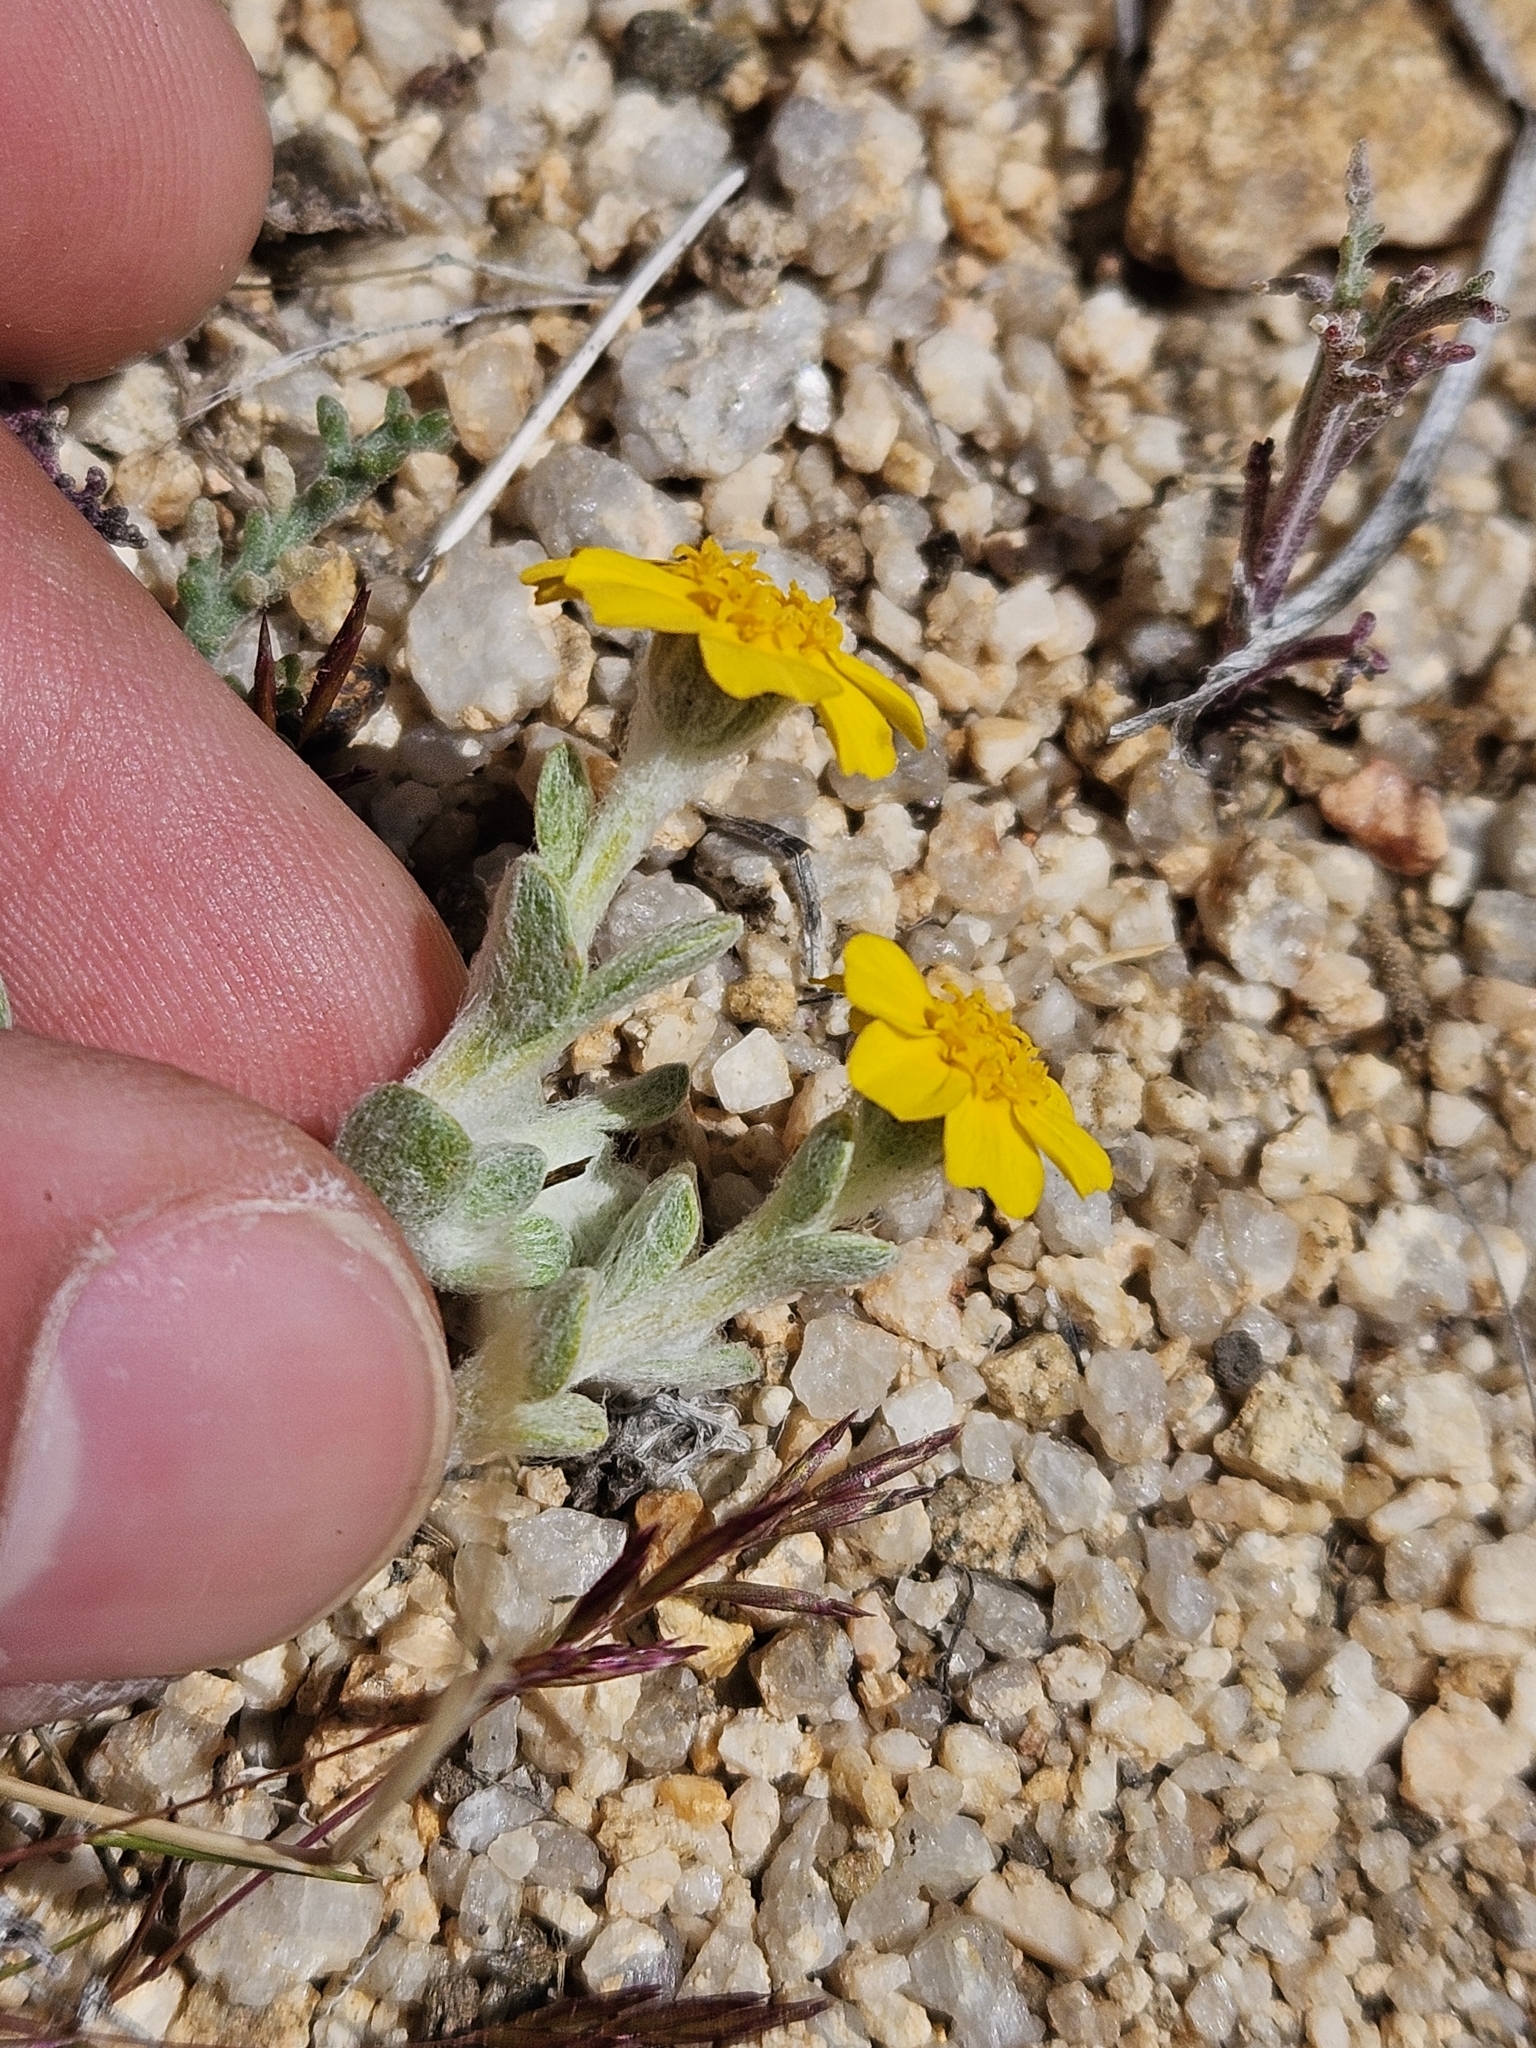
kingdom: Plantae
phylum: Tracheophyta
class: Magnoliopsida
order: Asterales
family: Asteraceae
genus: Eriophyllum
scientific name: Eriophyllum wallacei
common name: Wallace's woolly daisy
